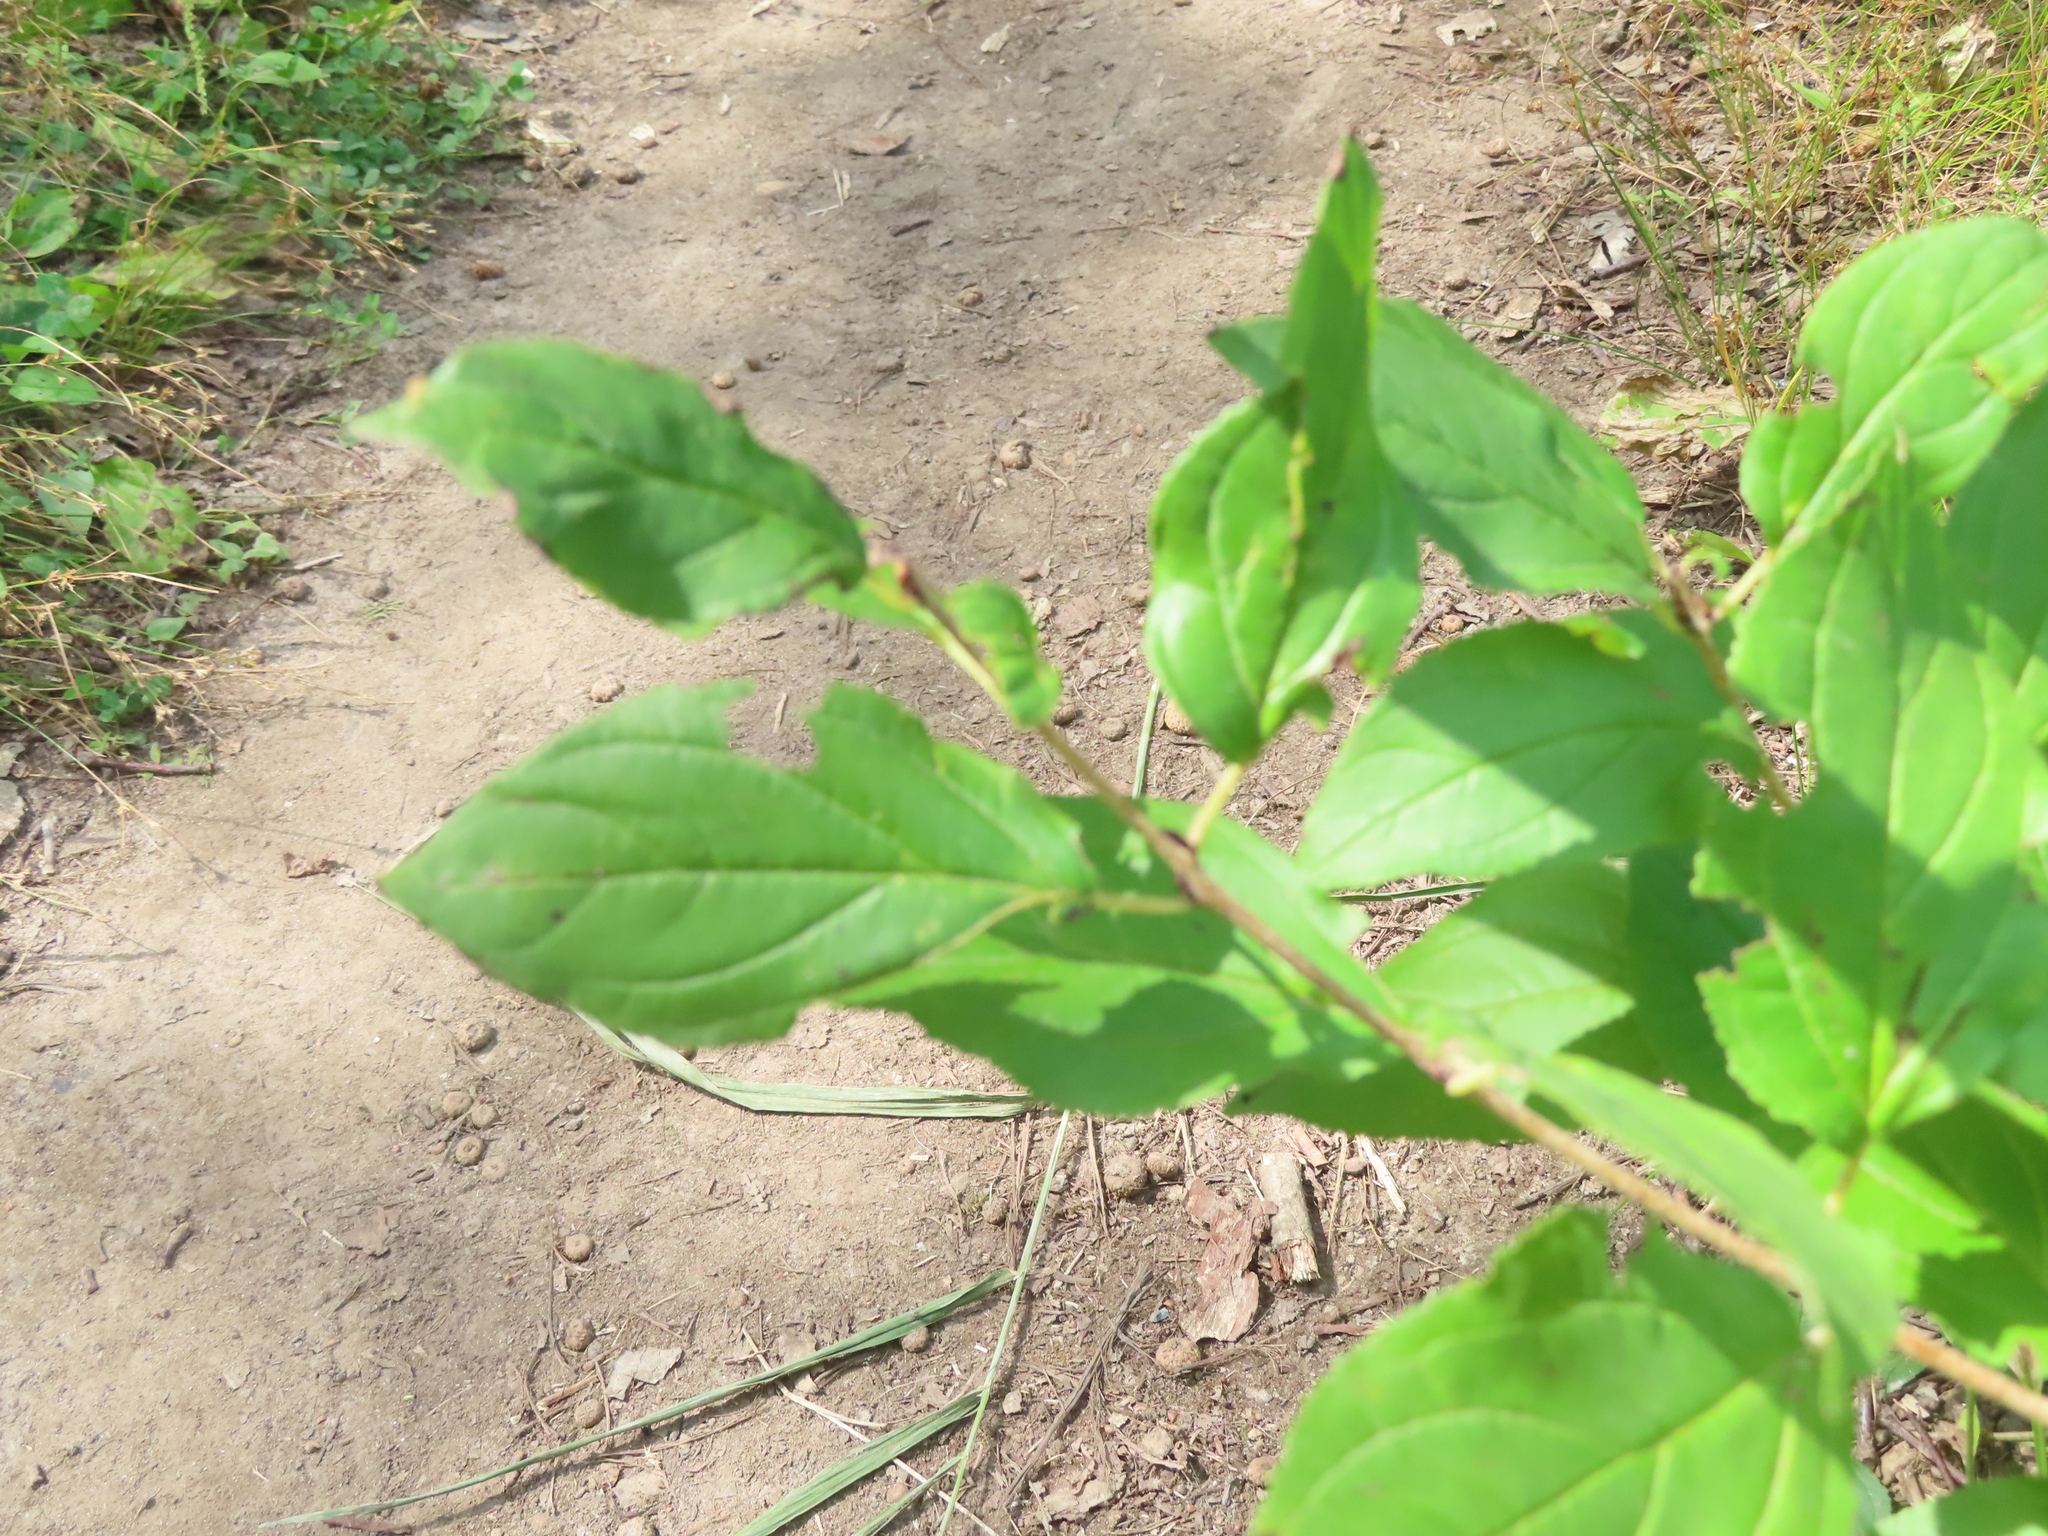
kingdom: Plantae
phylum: Tracheophyta
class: Magnoliopsida
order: Rosales
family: Rhamnaceae
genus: Rhamnus
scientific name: Rhamnus cathartica
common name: Common buckthorn
